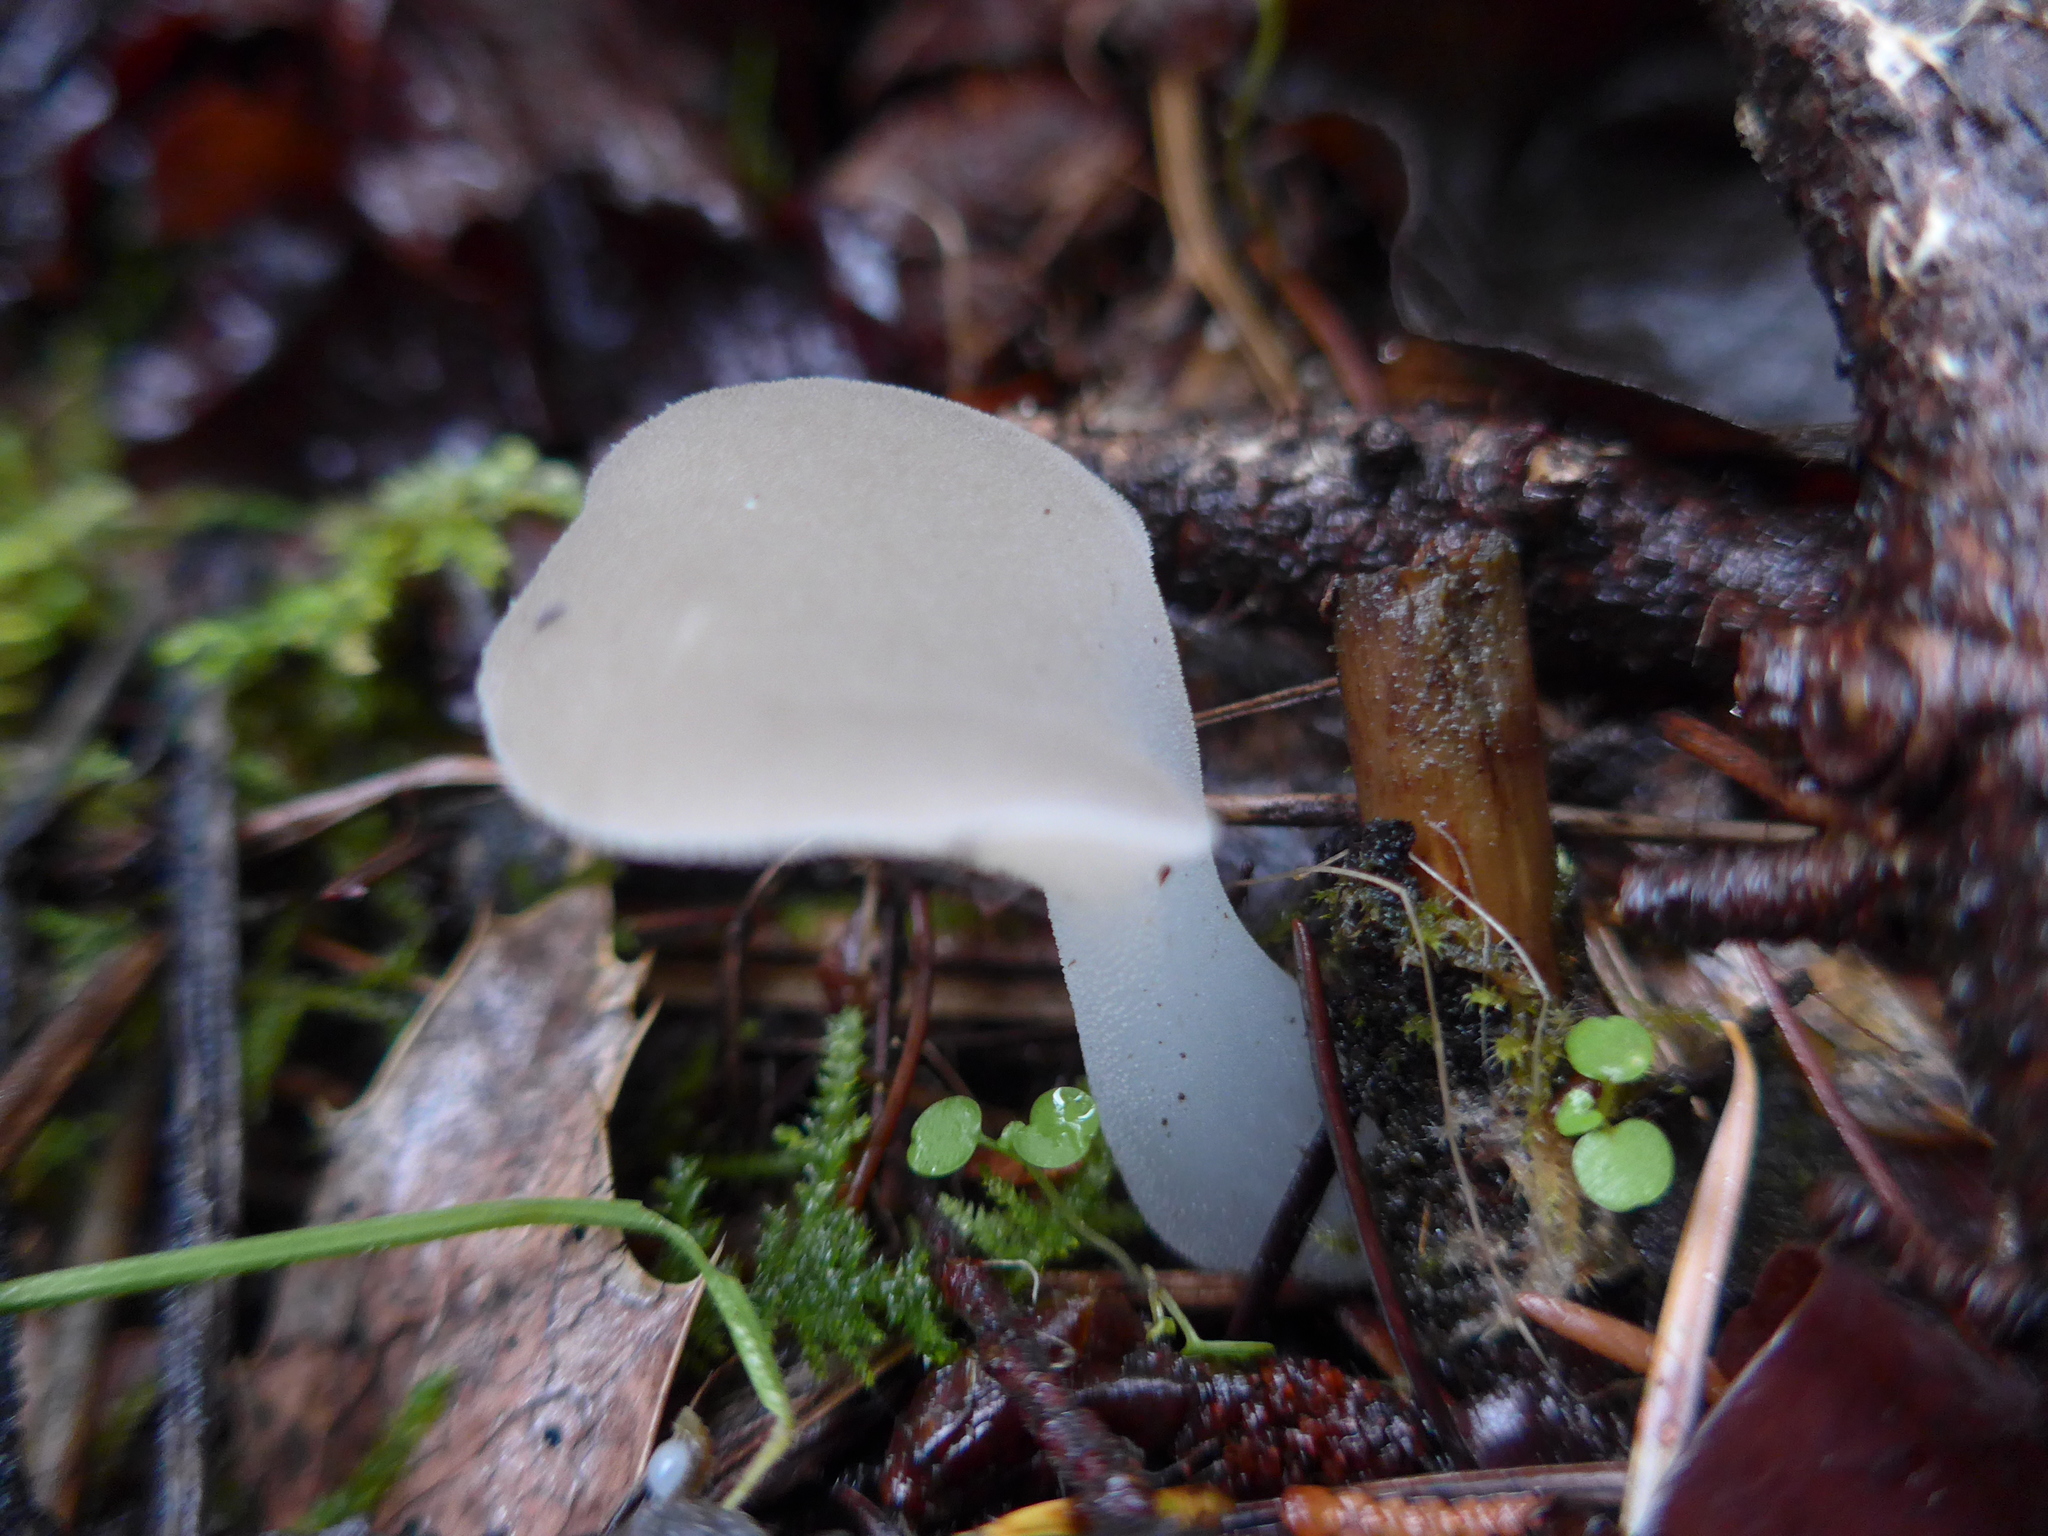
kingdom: Fungi
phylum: Basidiomycota
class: Agaricomycetes
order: Auriculariales
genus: Pseudohydnum
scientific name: Pseudohydnum gelatinosum
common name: Jelly tongue
